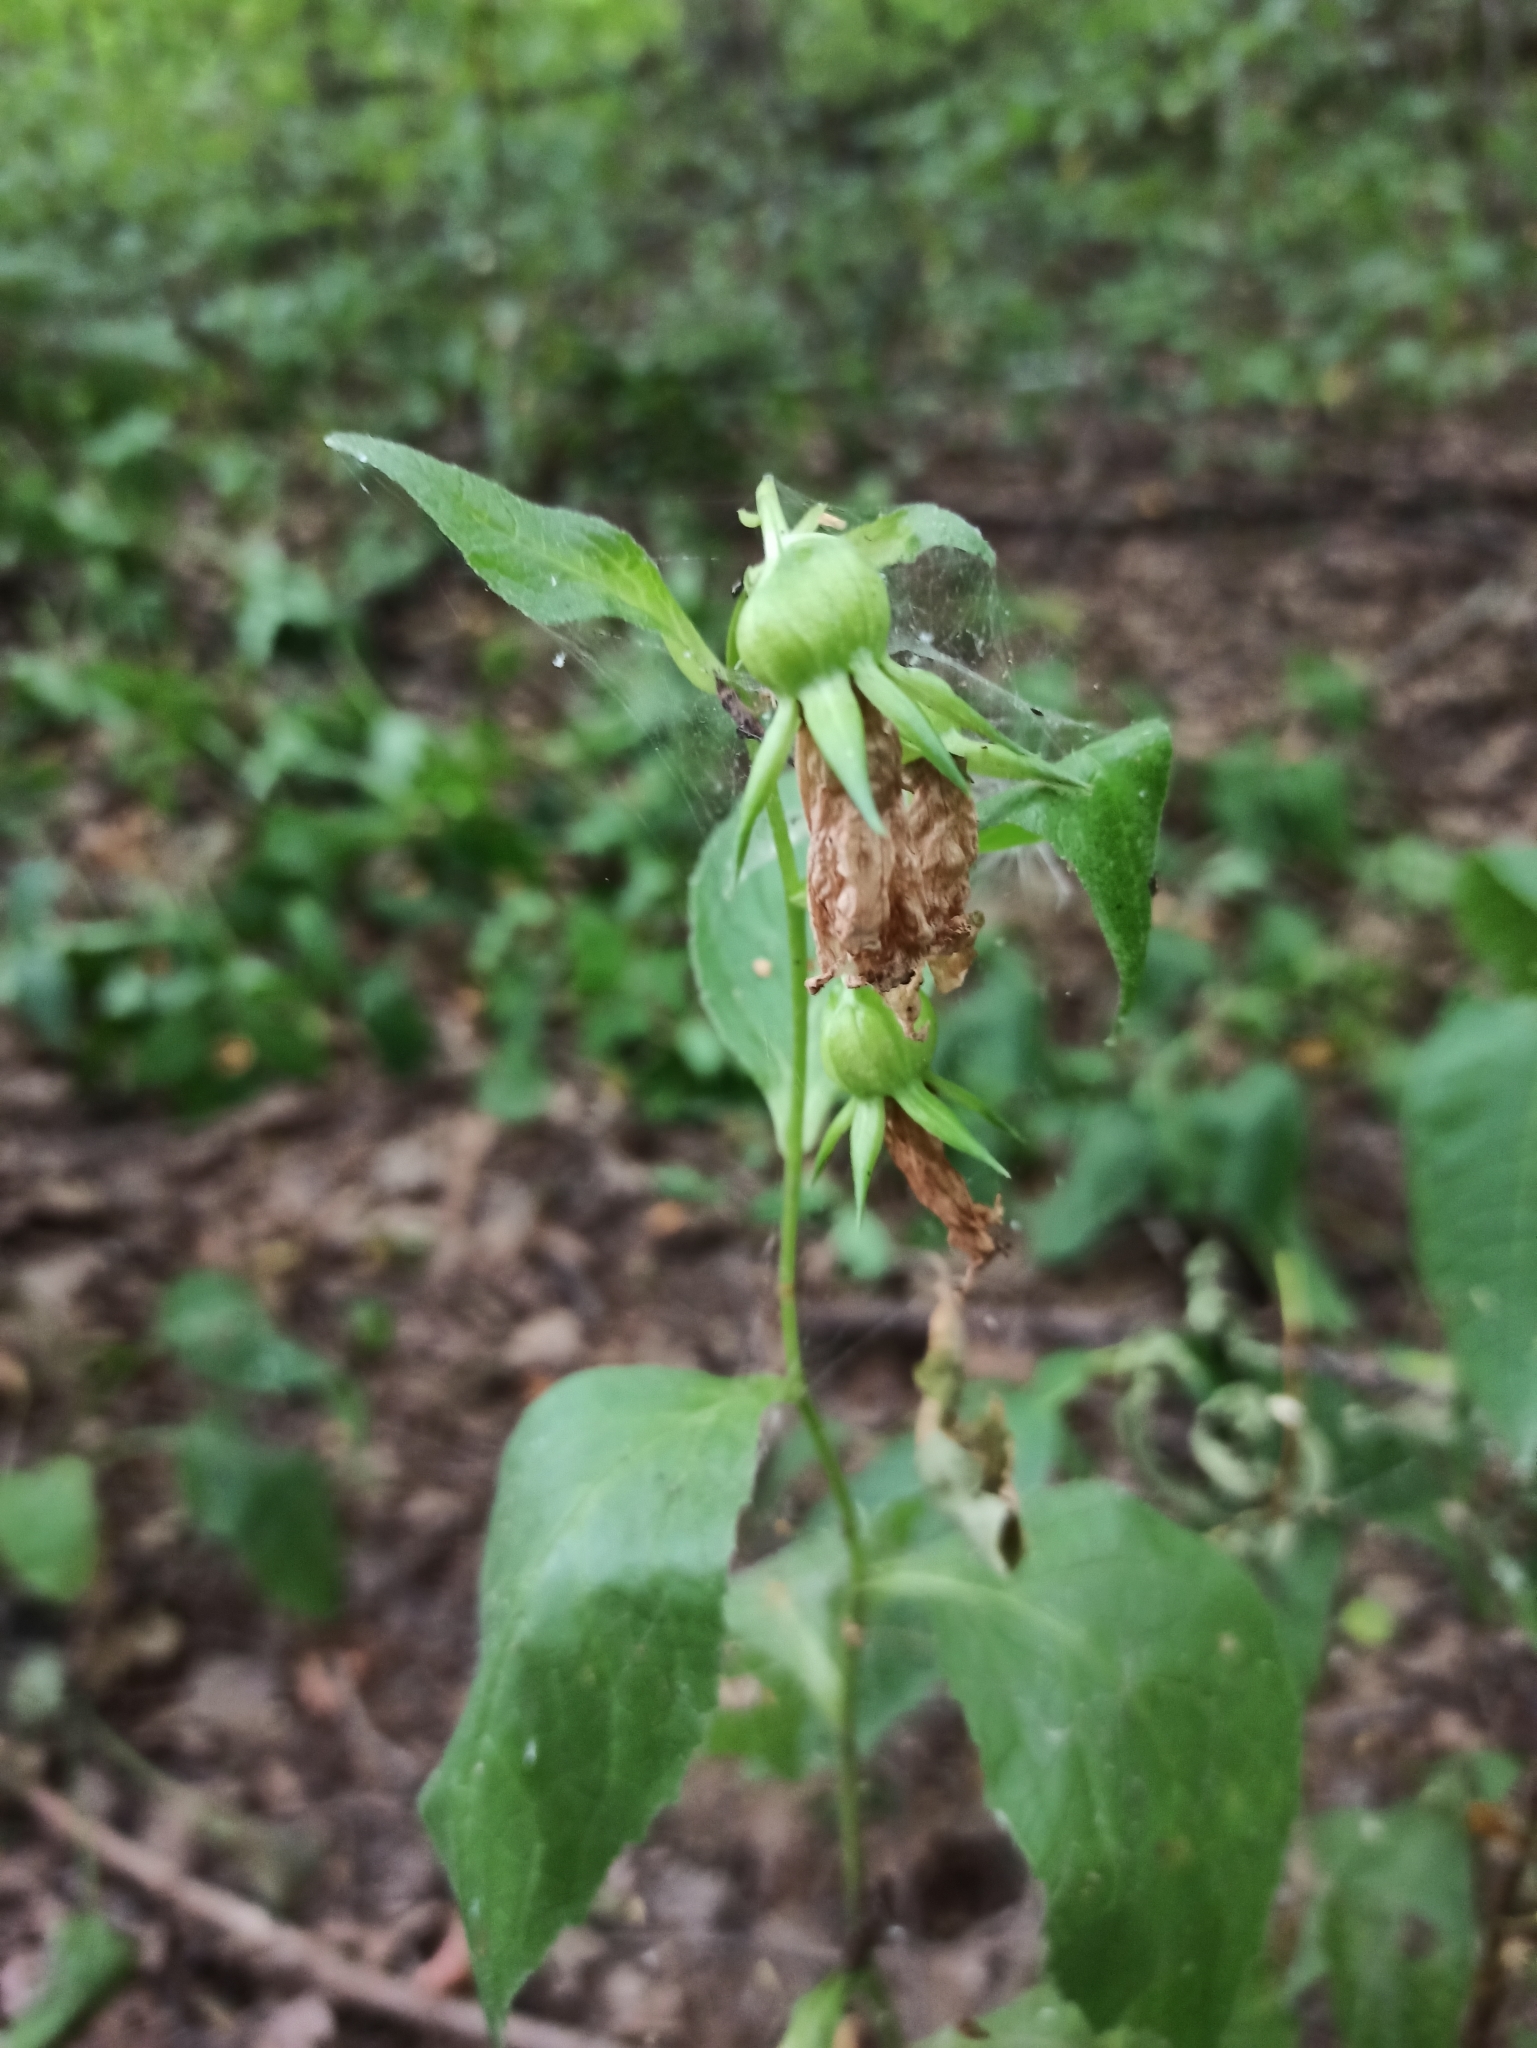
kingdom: Plantae
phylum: Tracheophyta
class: Magnoliopsida
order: Asterales
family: Campanulaceae
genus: Campanula
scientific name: Campanula latifolia
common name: Giant bellflower
